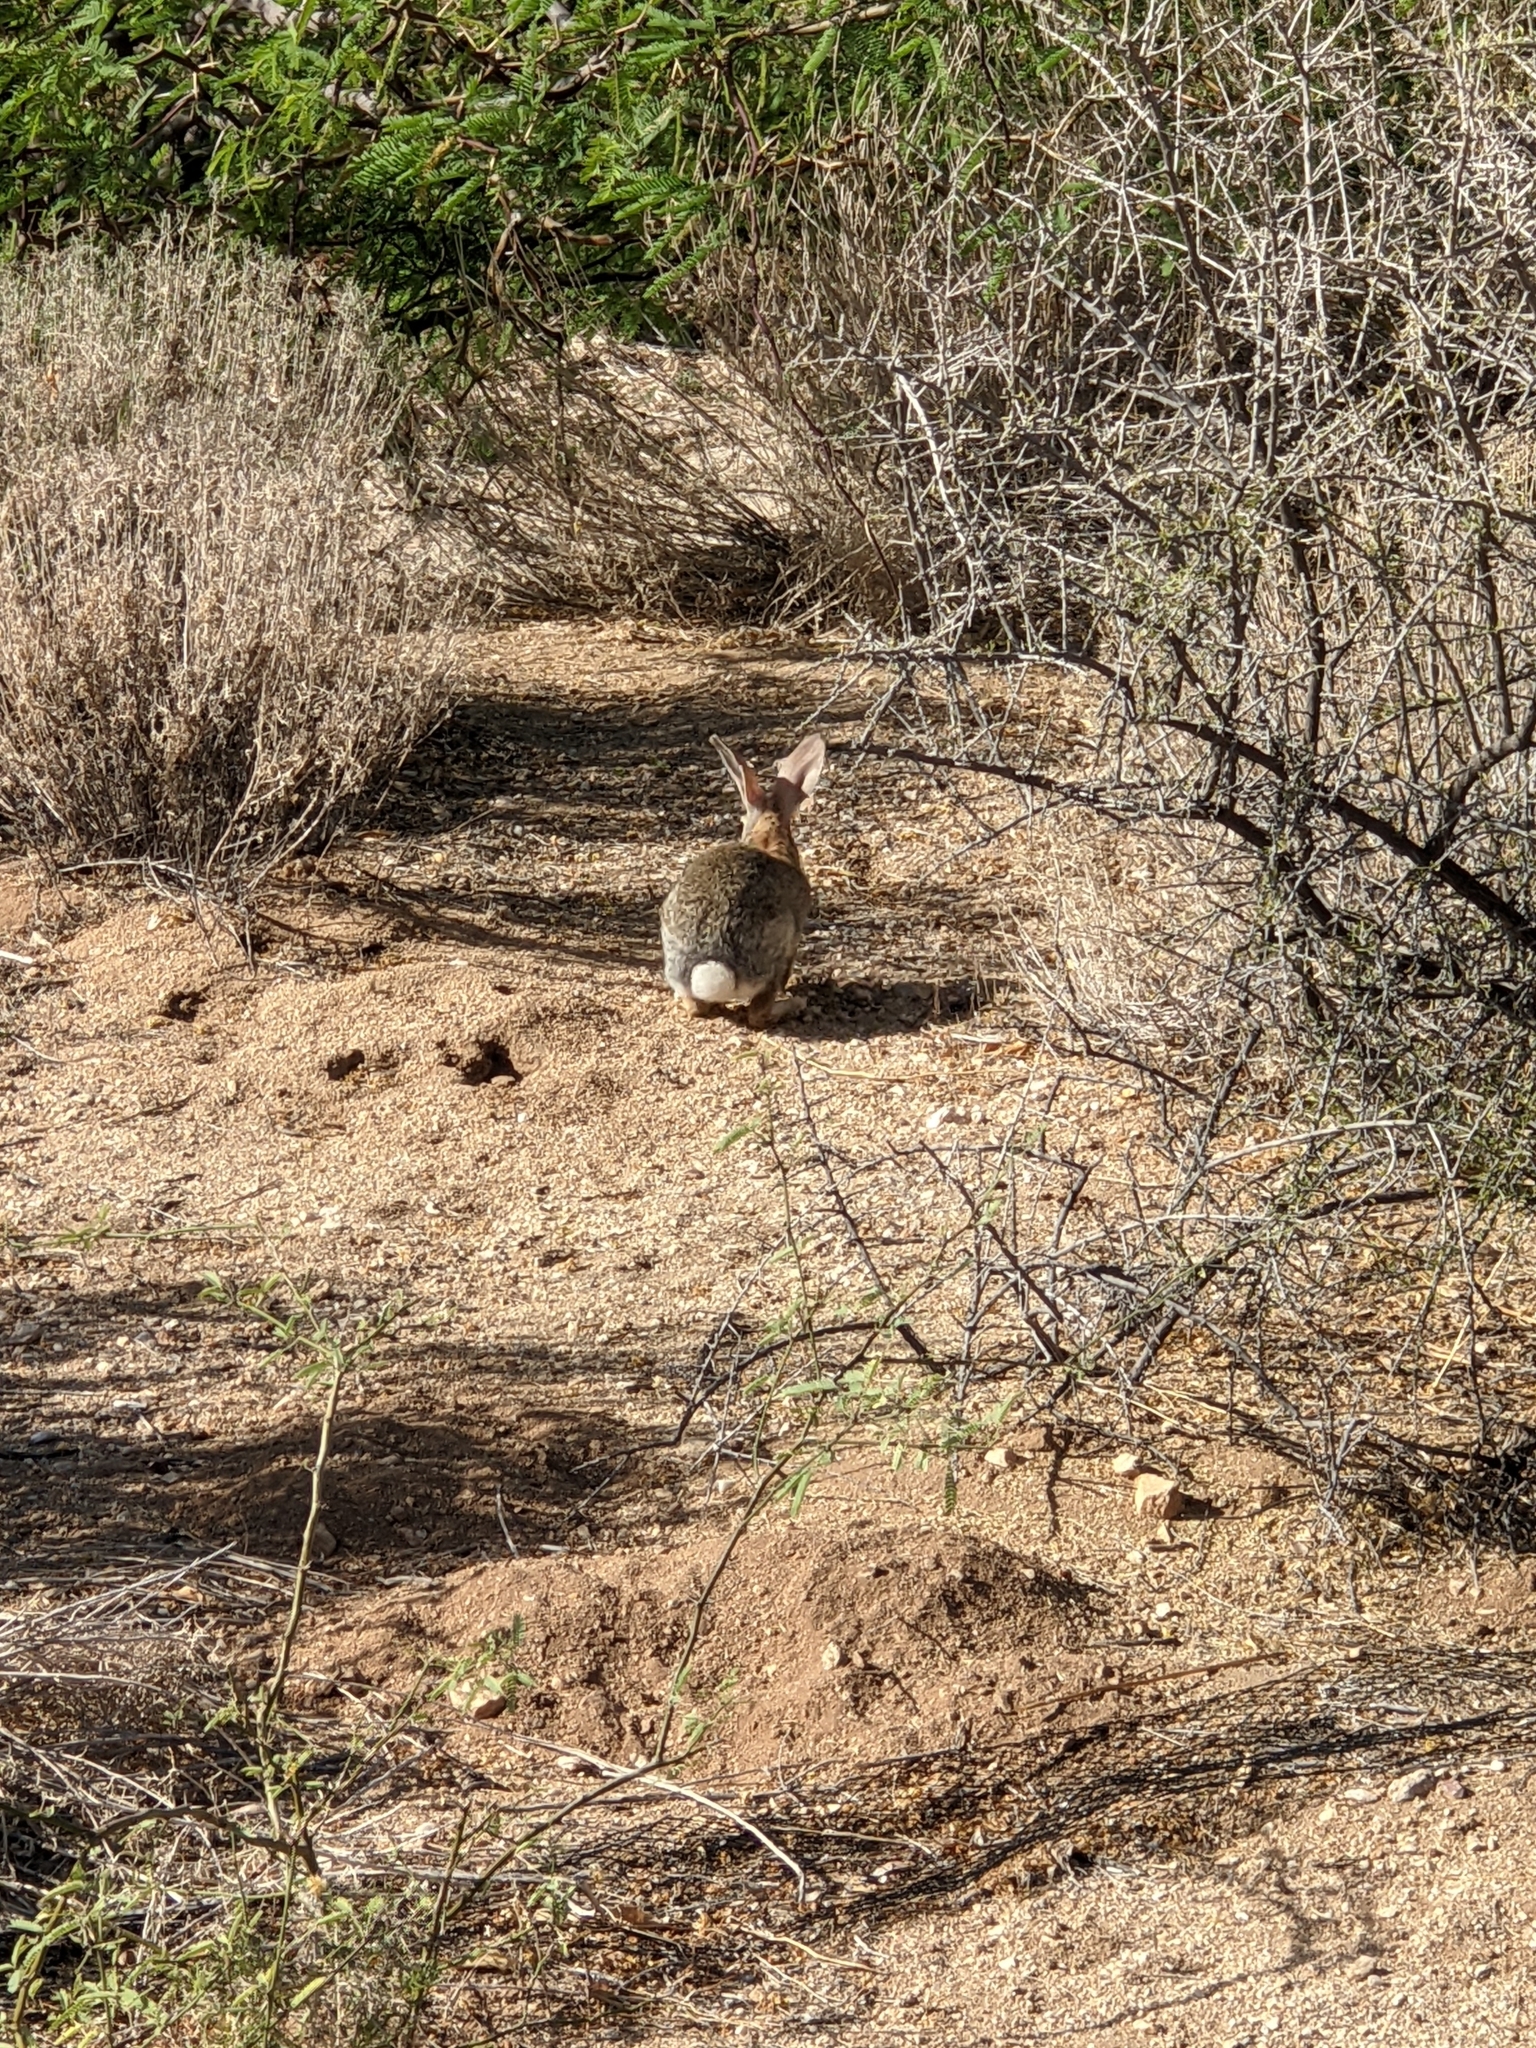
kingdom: Animalia
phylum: Chordata
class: Mammalia
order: Lagomorpha
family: Leporidae
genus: Sylvilagus
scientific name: Sylvilagus audubonii
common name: Desert cottontail
